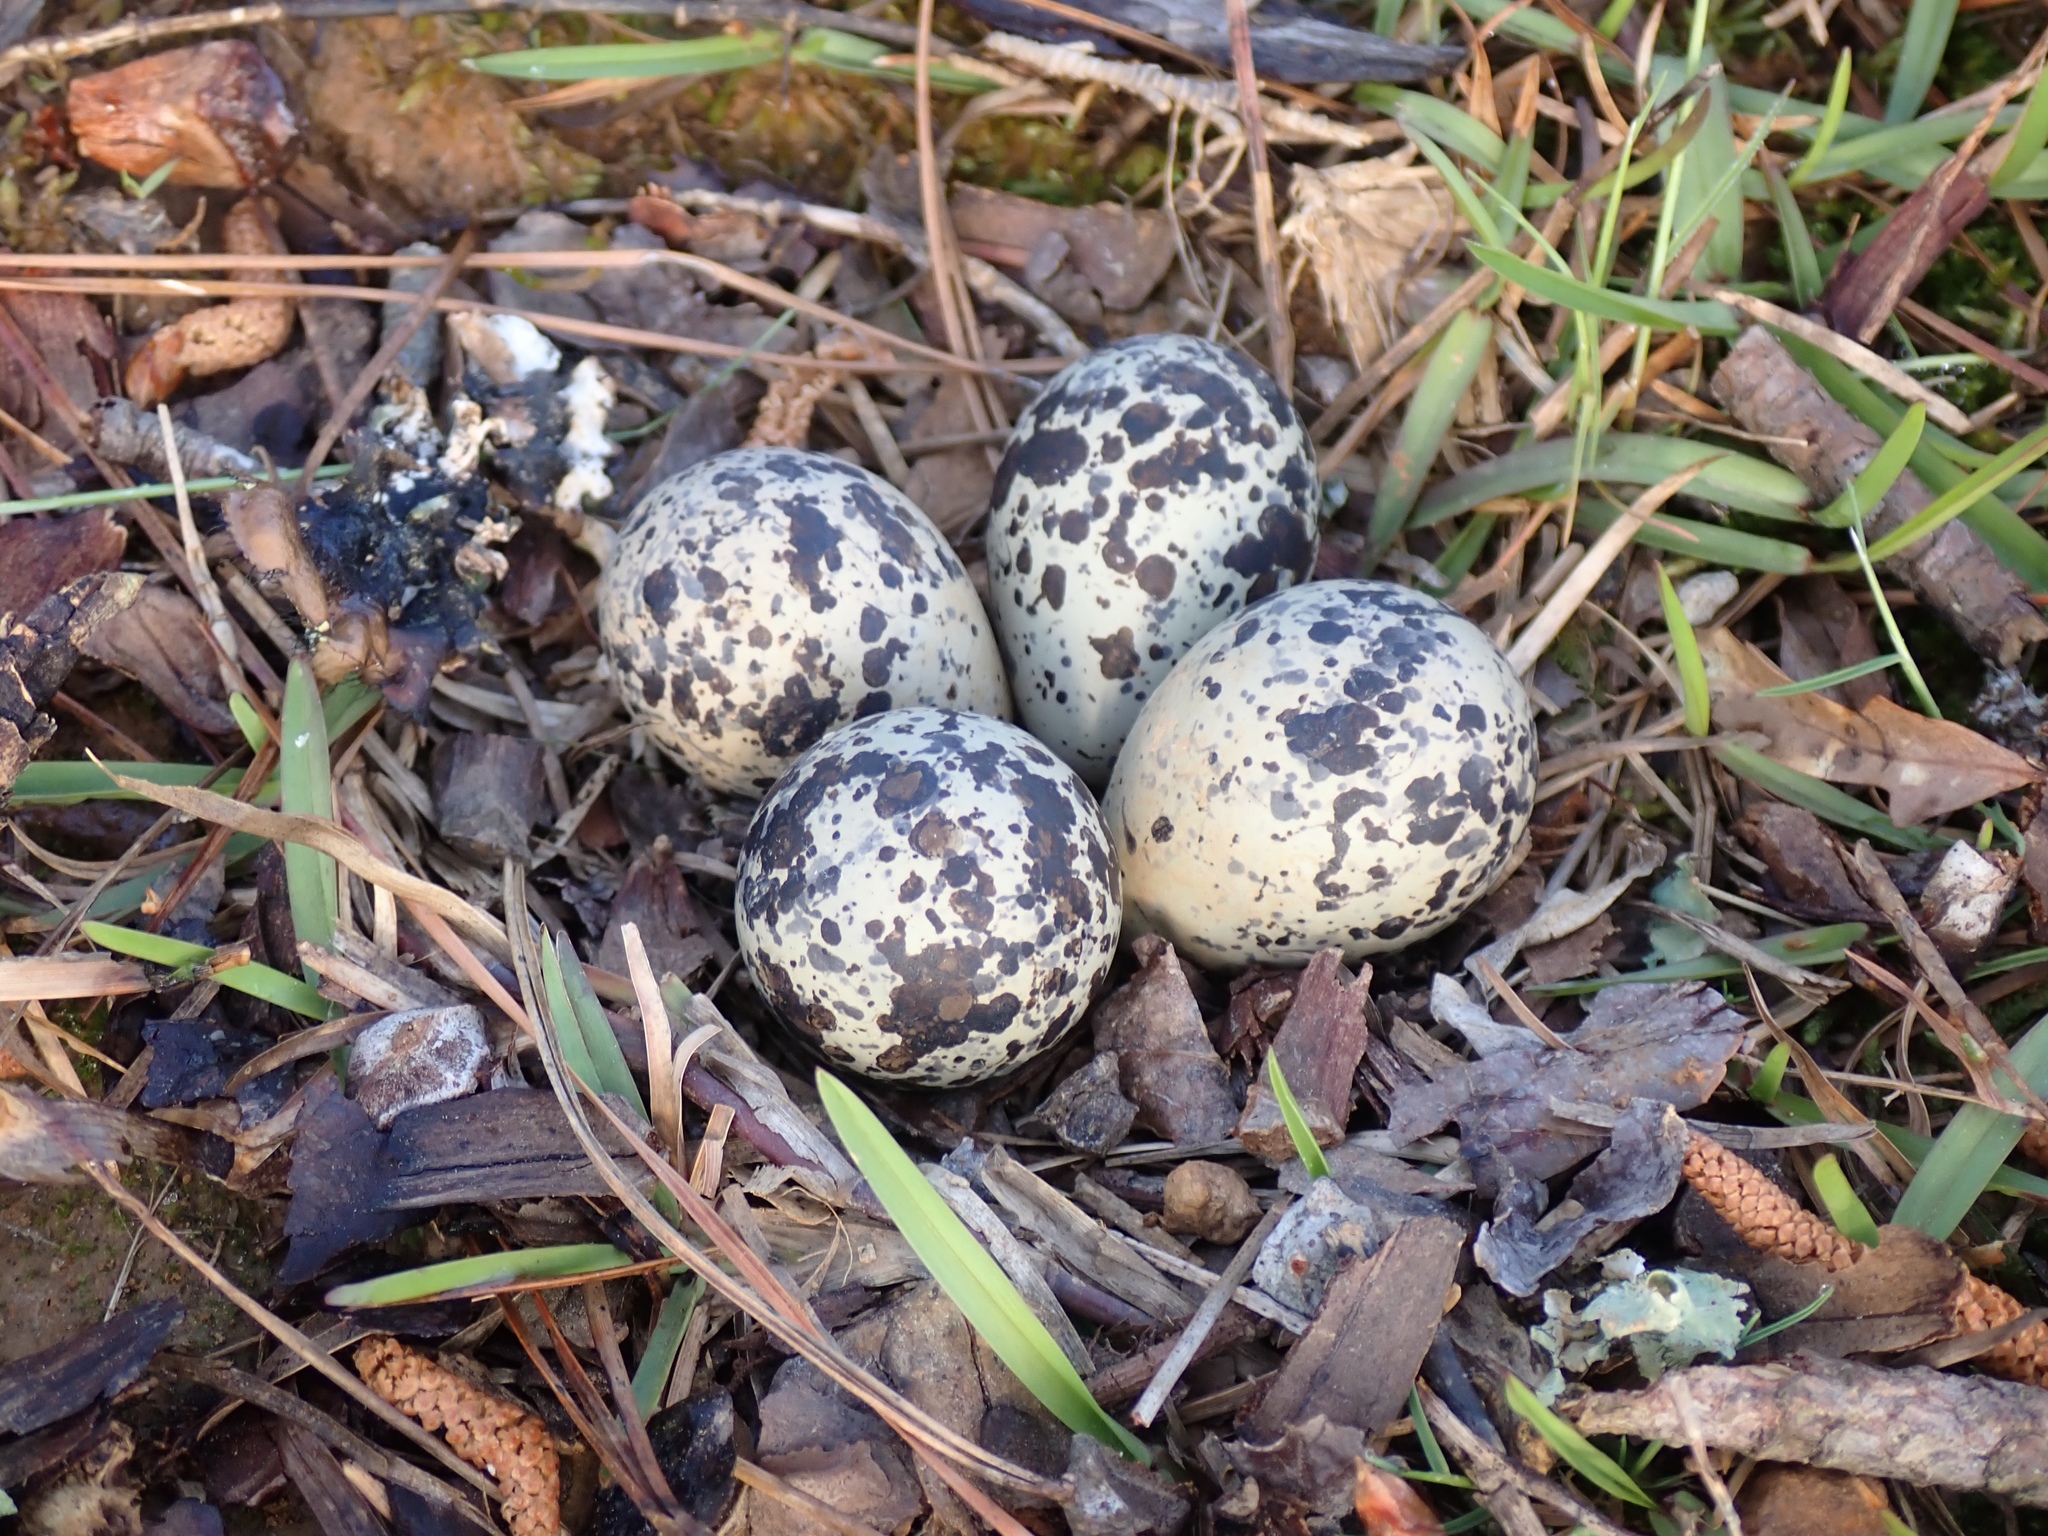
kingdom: Animalia
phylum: Chordata
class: Aves
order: Charadriiformes
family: Charadriidae
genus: Charadrius
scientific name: Charadrius vociferus
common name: Killdeer
